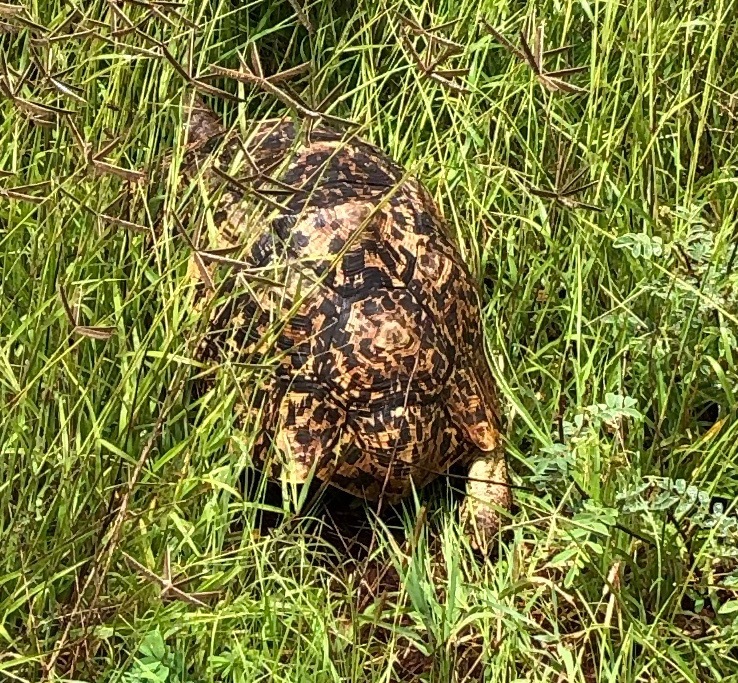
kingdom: Animalia
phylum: Chordata
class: Testudines
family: Testudinidae
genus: Stigmochelys
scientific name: Stigmochelys pardalis
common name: Leopard tortoise
